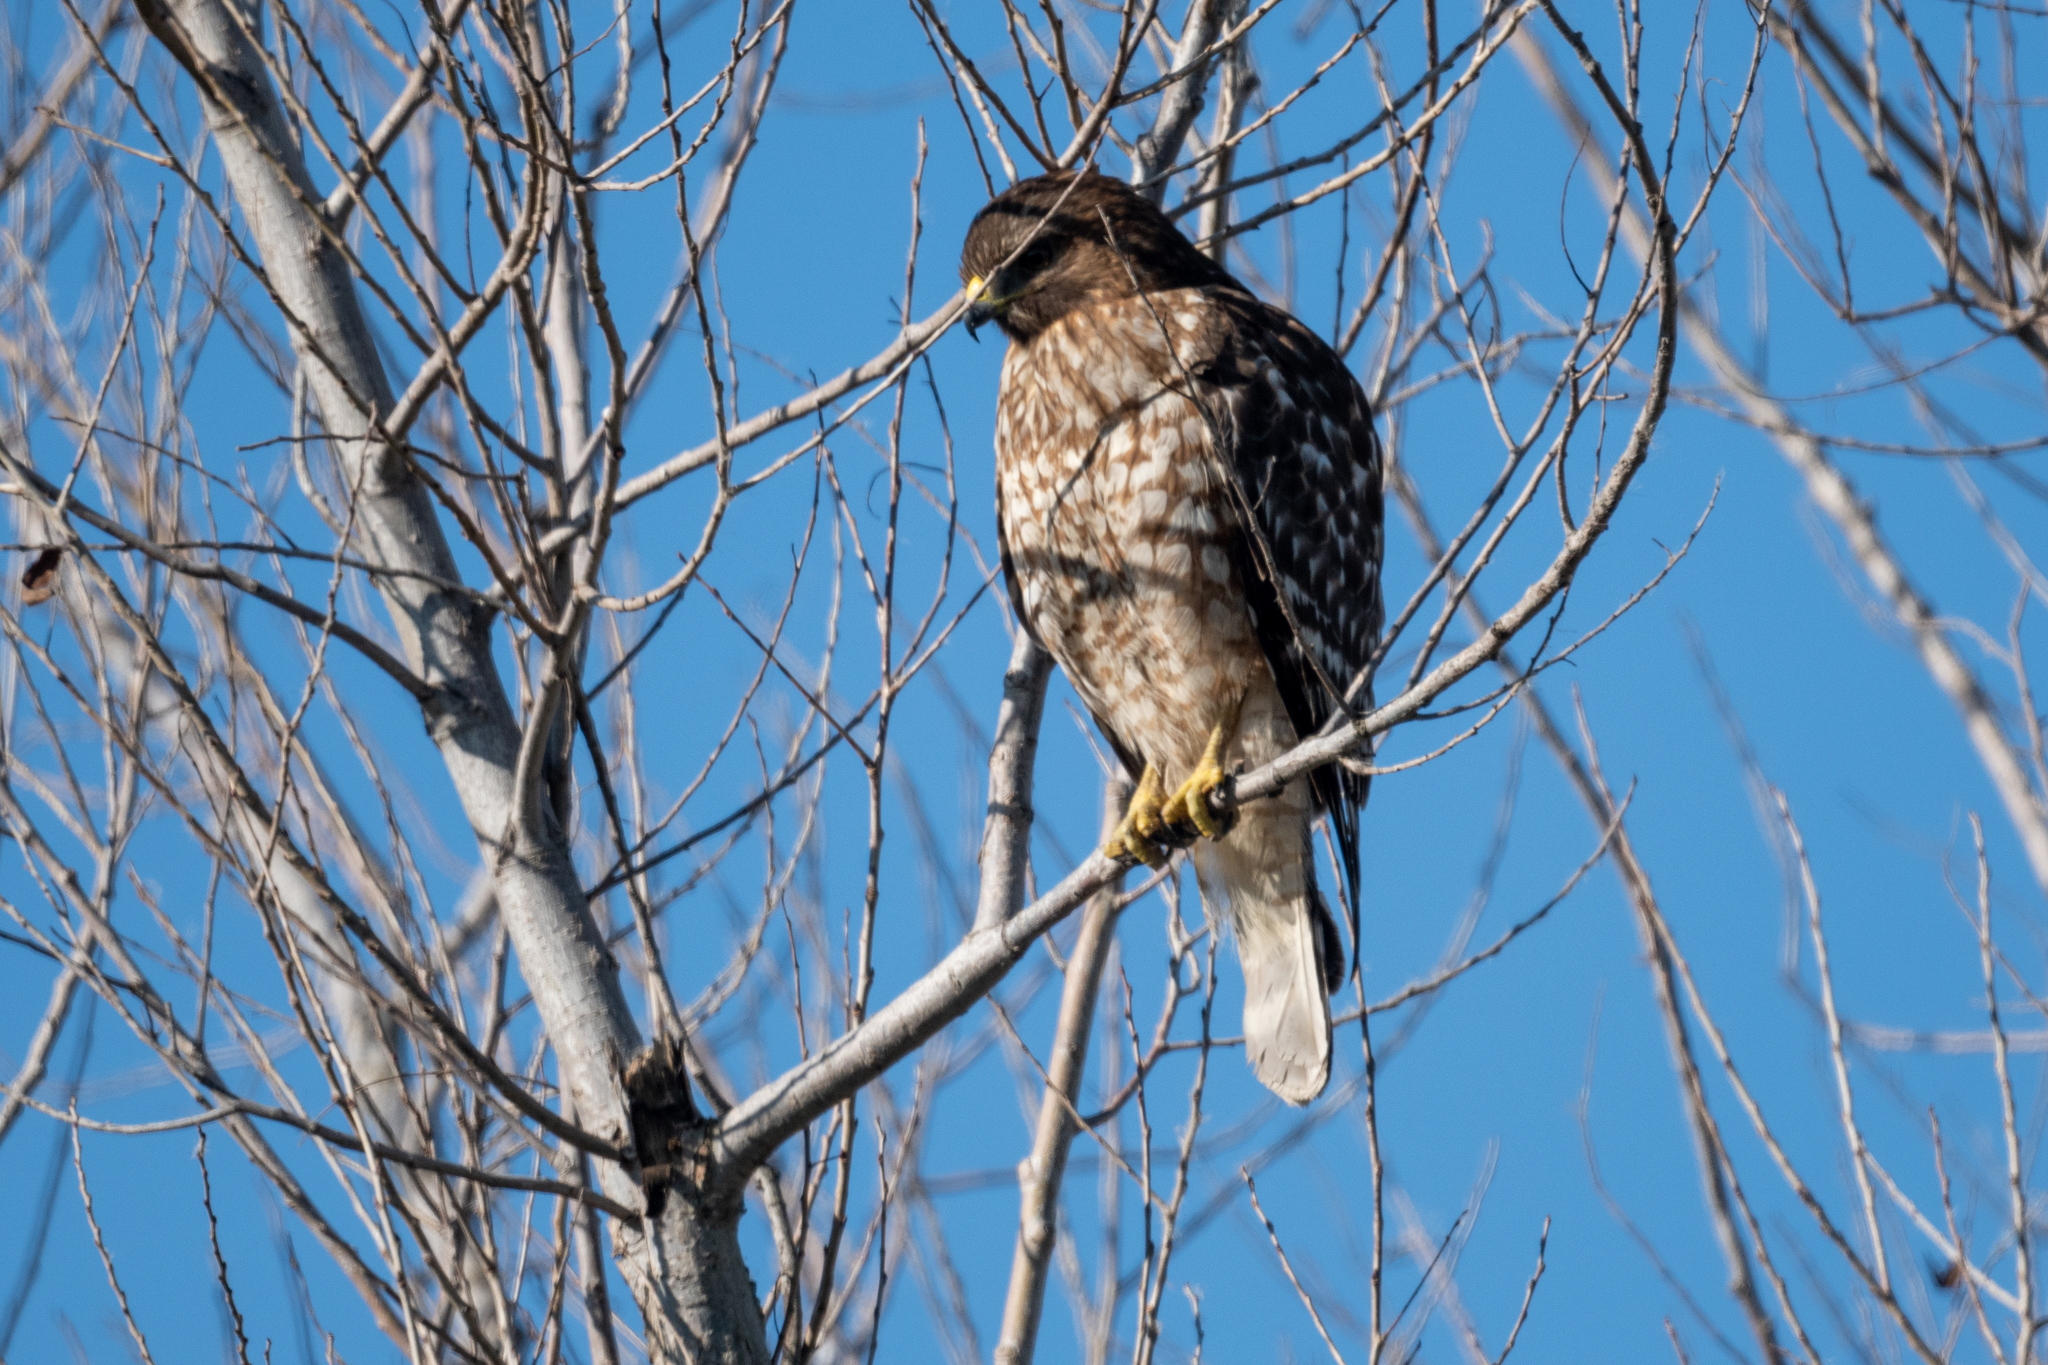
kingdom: Animalia
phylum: Chordata
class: Aves
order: Accipitriformes
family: Accipitridae
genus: Buteo
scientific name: Buteo lineatus
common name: Red-shouldered hawk
